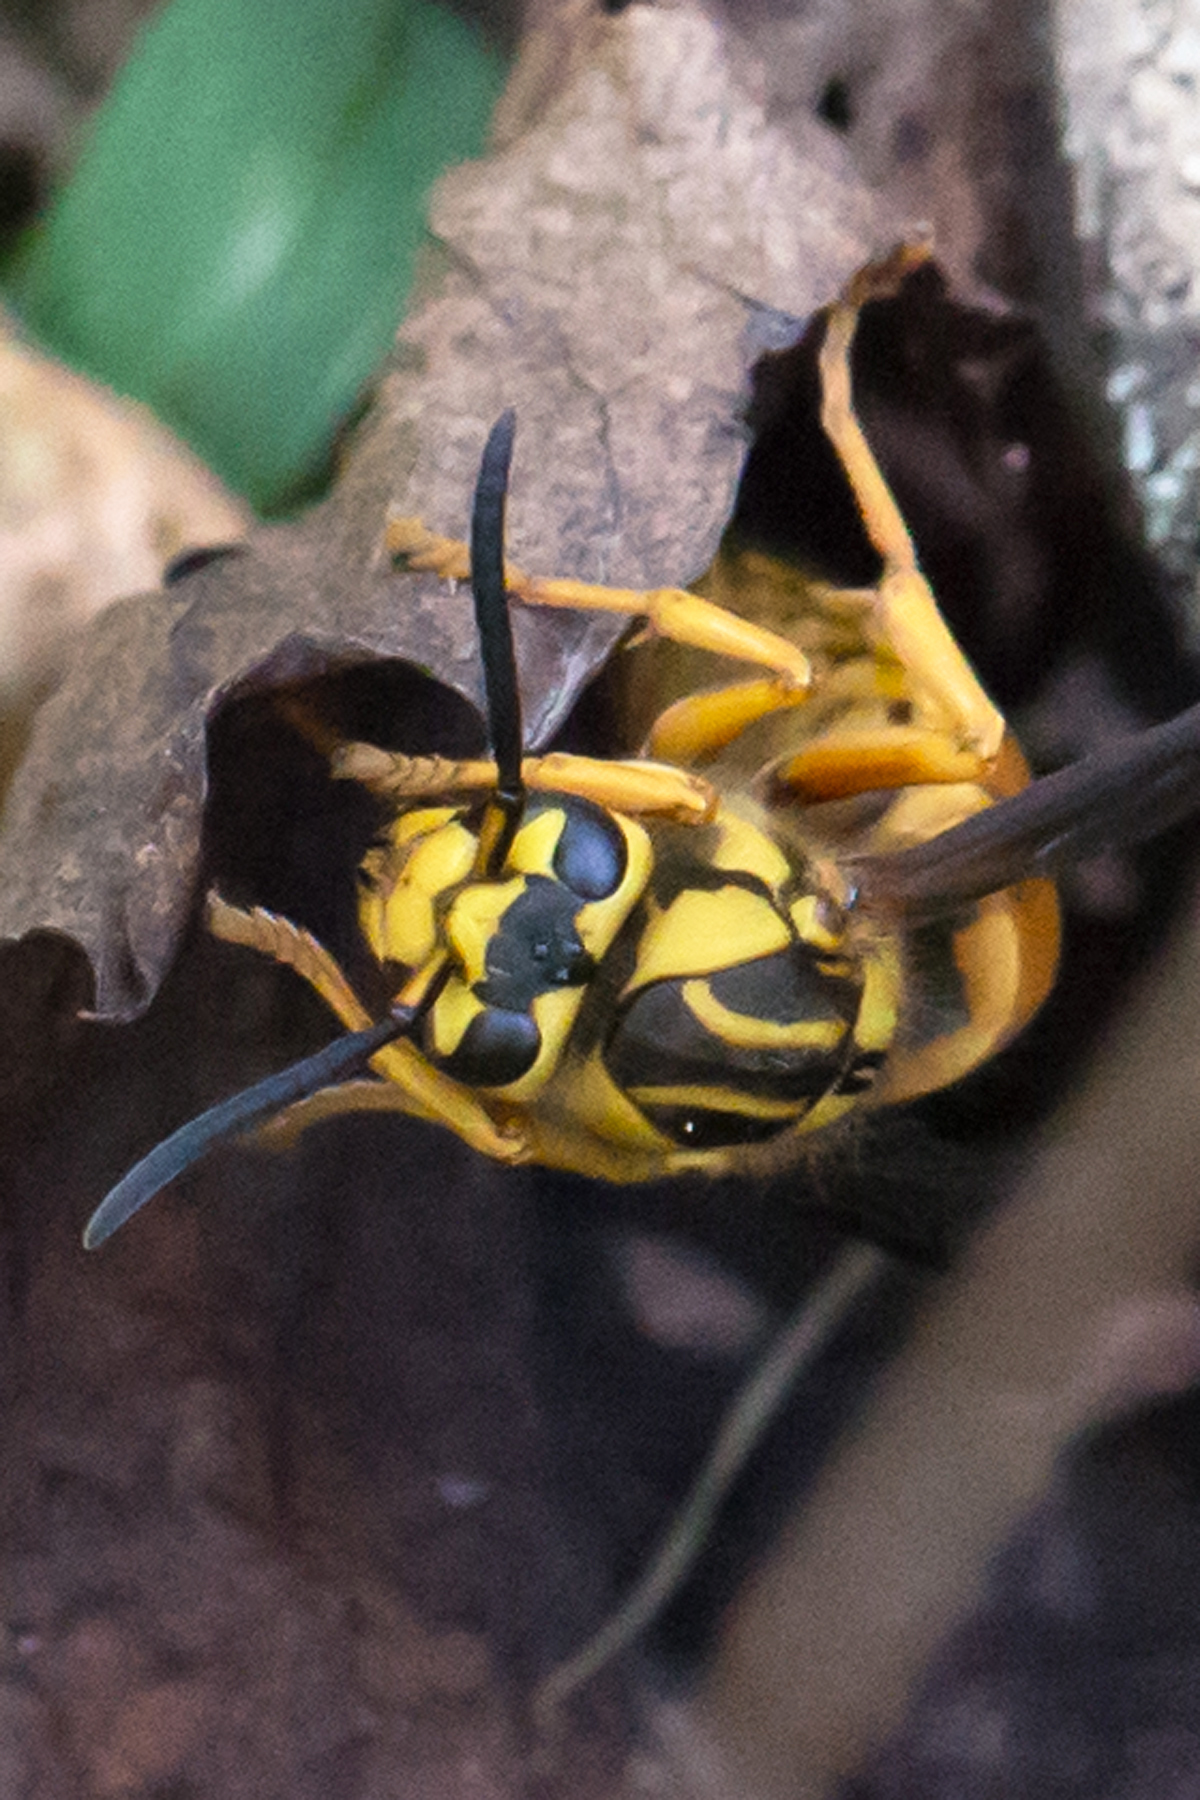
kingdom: Animalia
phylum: Arthropoda
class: Insecta
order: Hymenoptera
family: Vespidae
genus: Vespula
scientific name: Vespula squamosa
